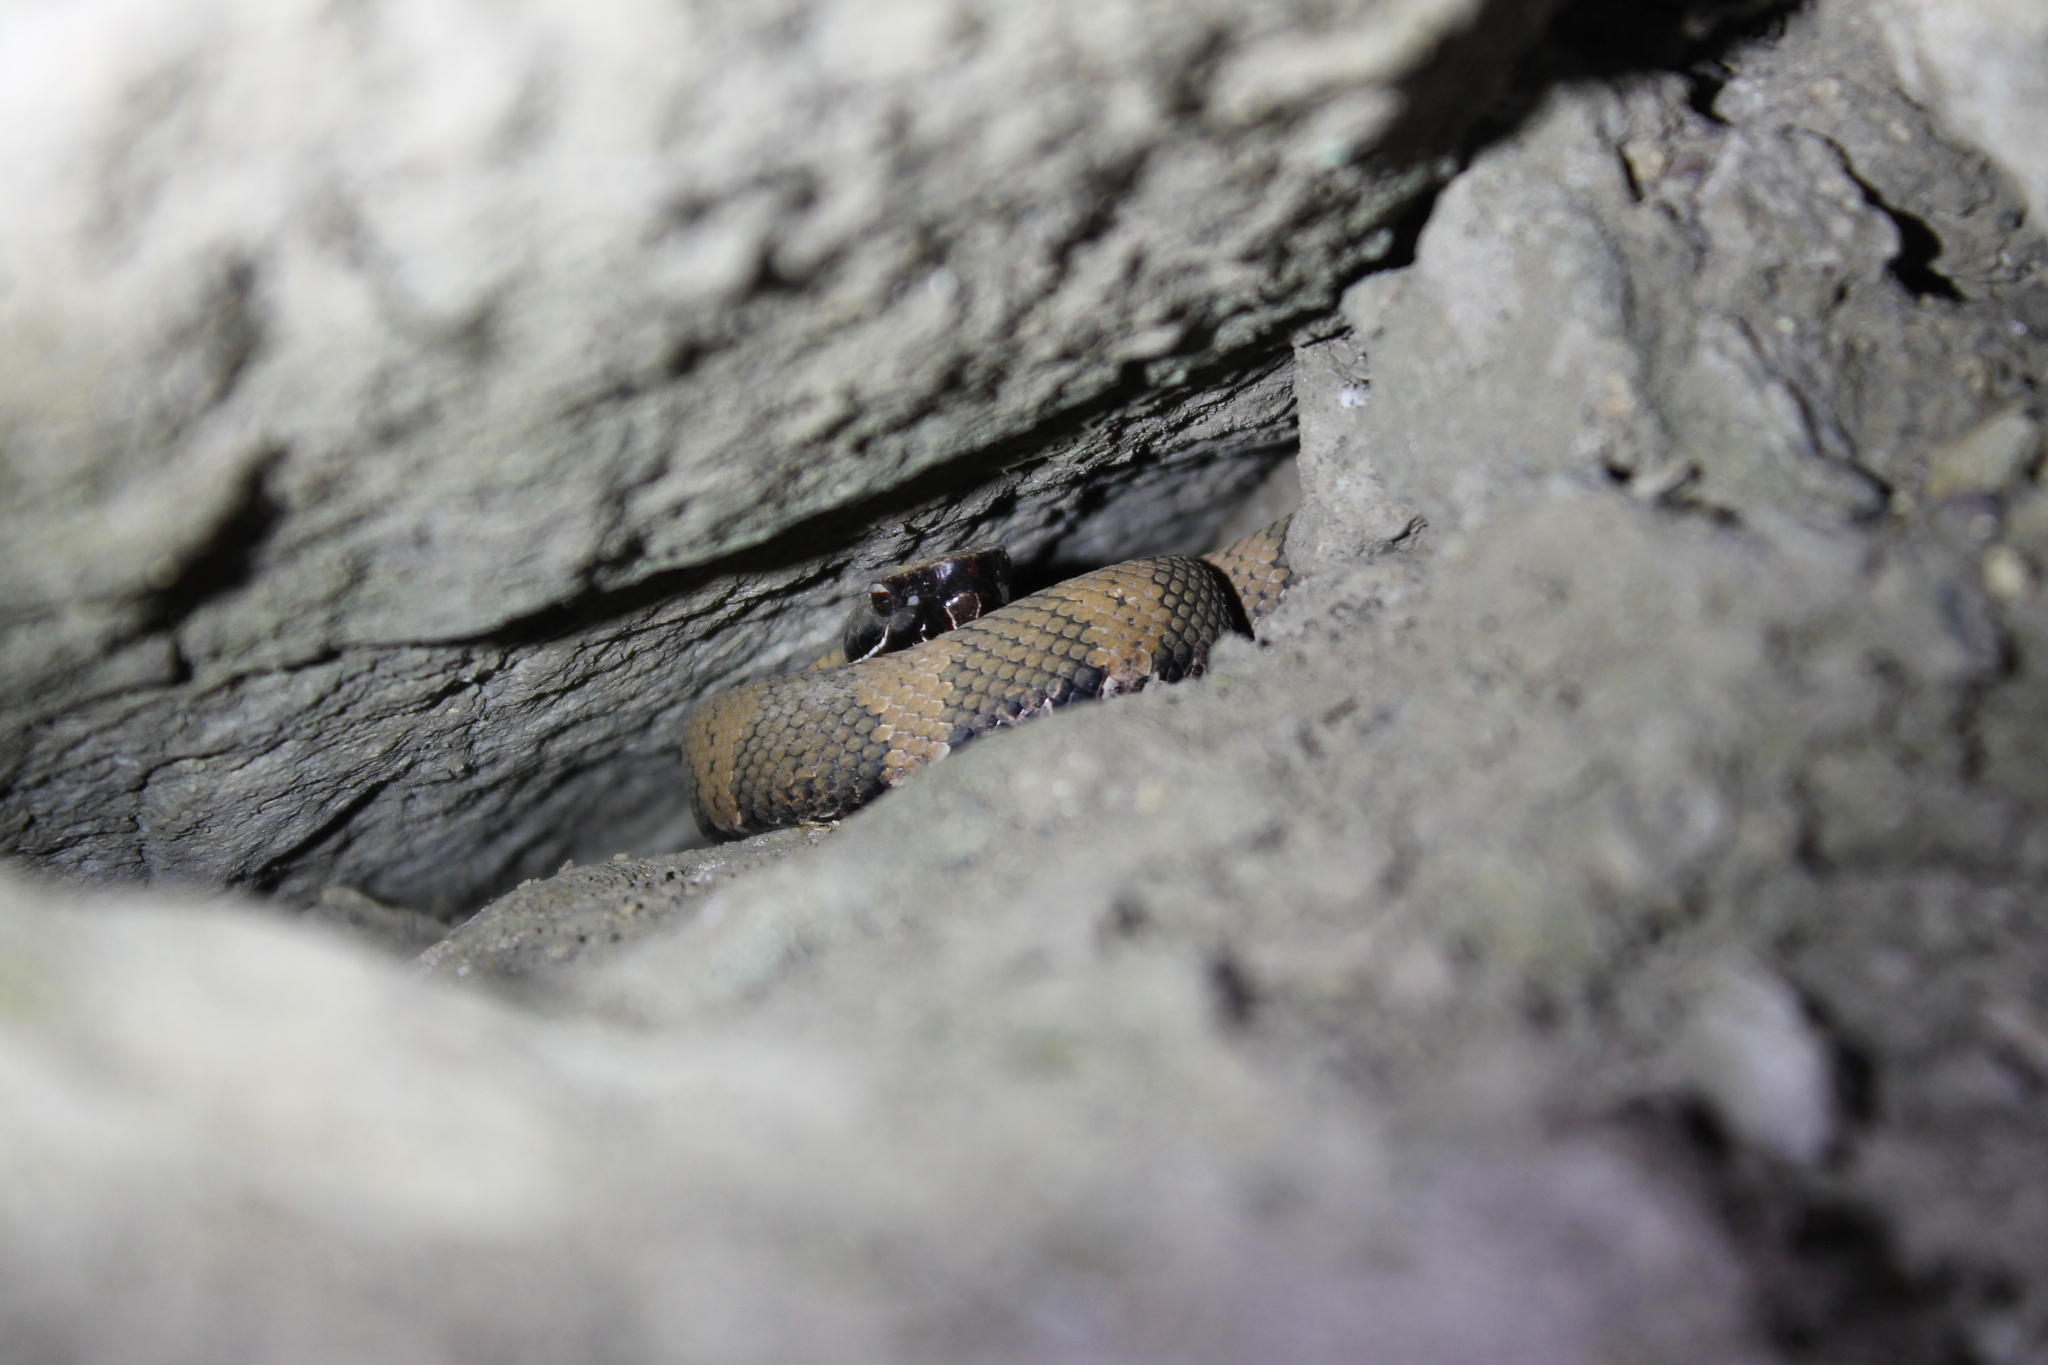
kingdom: Animalia
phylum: Chordata
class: Squamata
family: Viperidae
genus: Agkistrodon
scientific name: Agkistrodon piscivorus
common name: Cottonmouth
